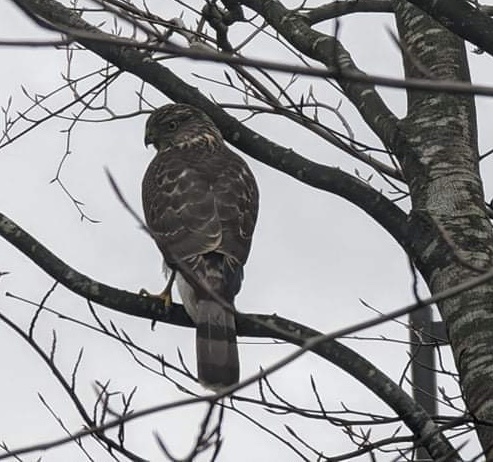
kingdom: Animalia
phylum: Chordata
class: Aves
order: Accipitriformes
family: Accipitridae
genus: Accipiter
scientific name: Accipiter cooperii
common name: Cooper's hawk
